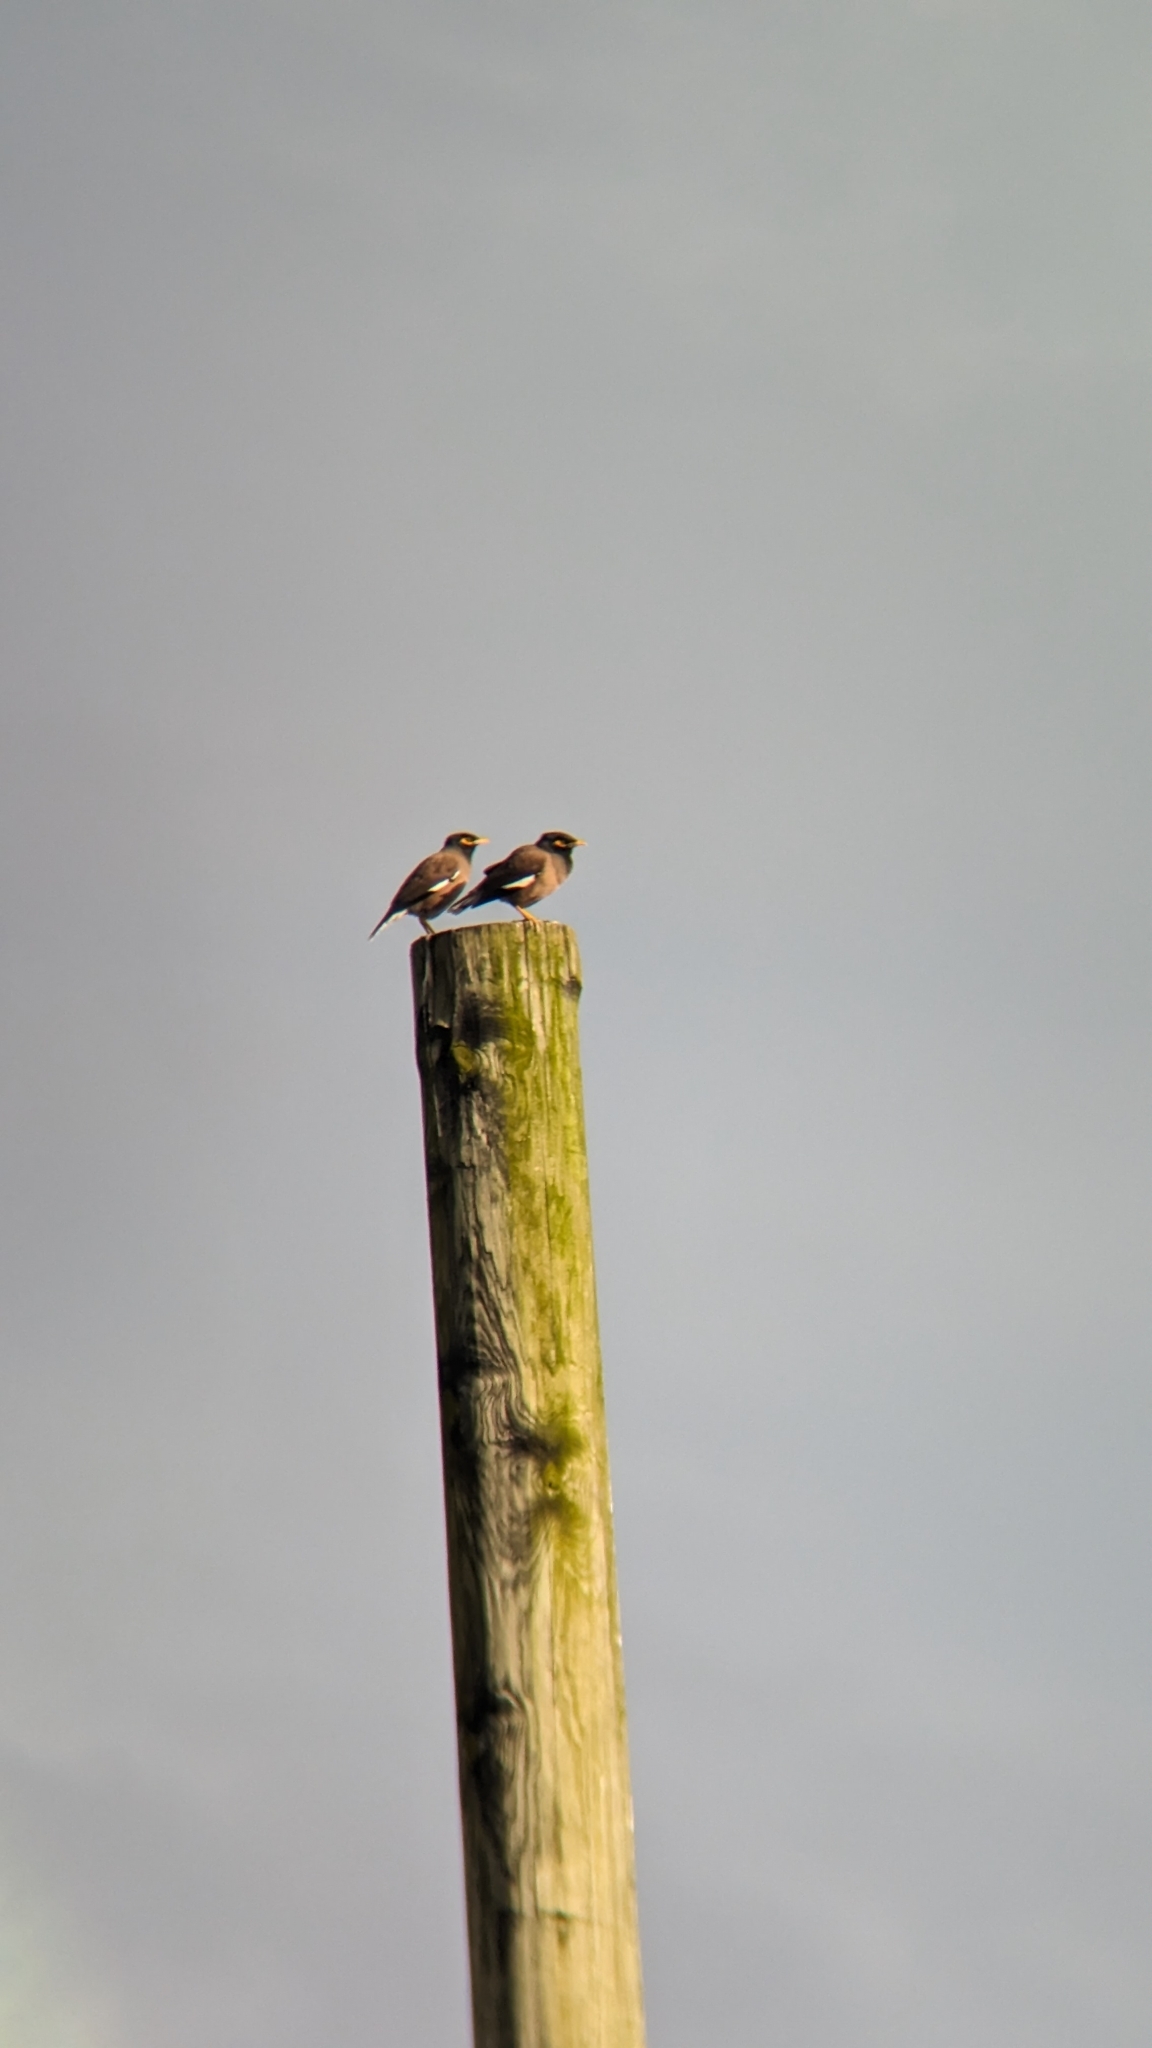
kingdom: Animalia
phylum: Chordata
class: Aves
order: Passeriformes
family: Sturnidae
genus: Acridotheres
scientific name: Acridotheres tristis
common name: Common myna
